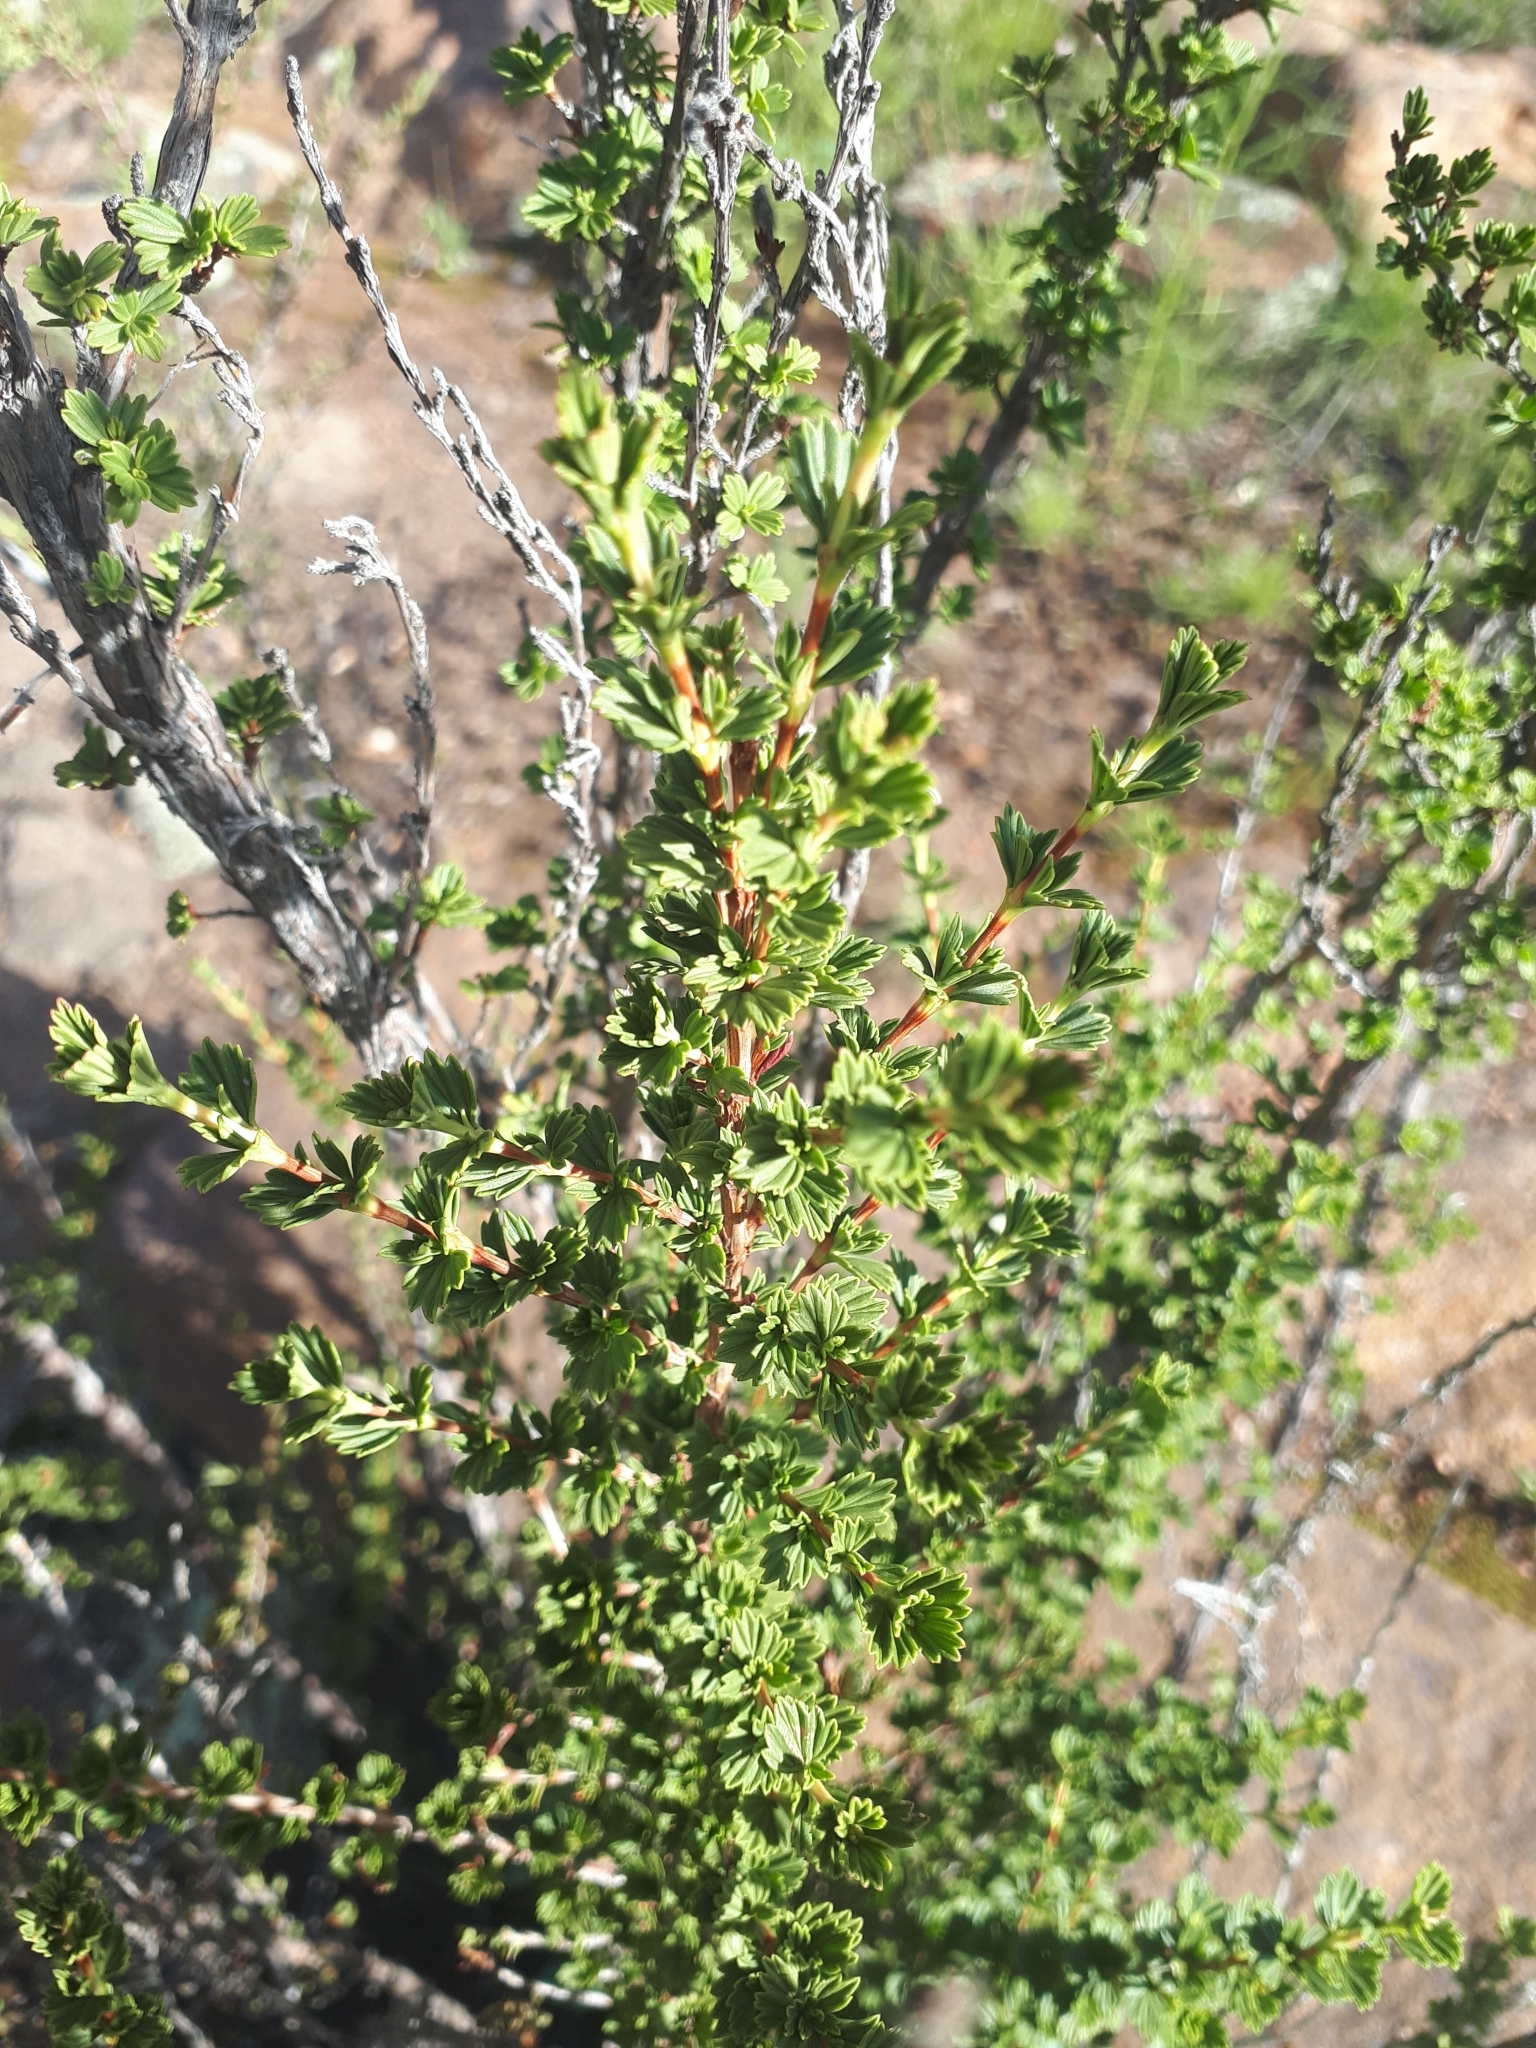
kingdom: Plantae
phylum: Tracheophyta
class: Magnoliopsida
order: Gunnerales
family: Myrothamnaceae
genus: Myrothamnus
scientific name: Myrothamnus flabellifolius
